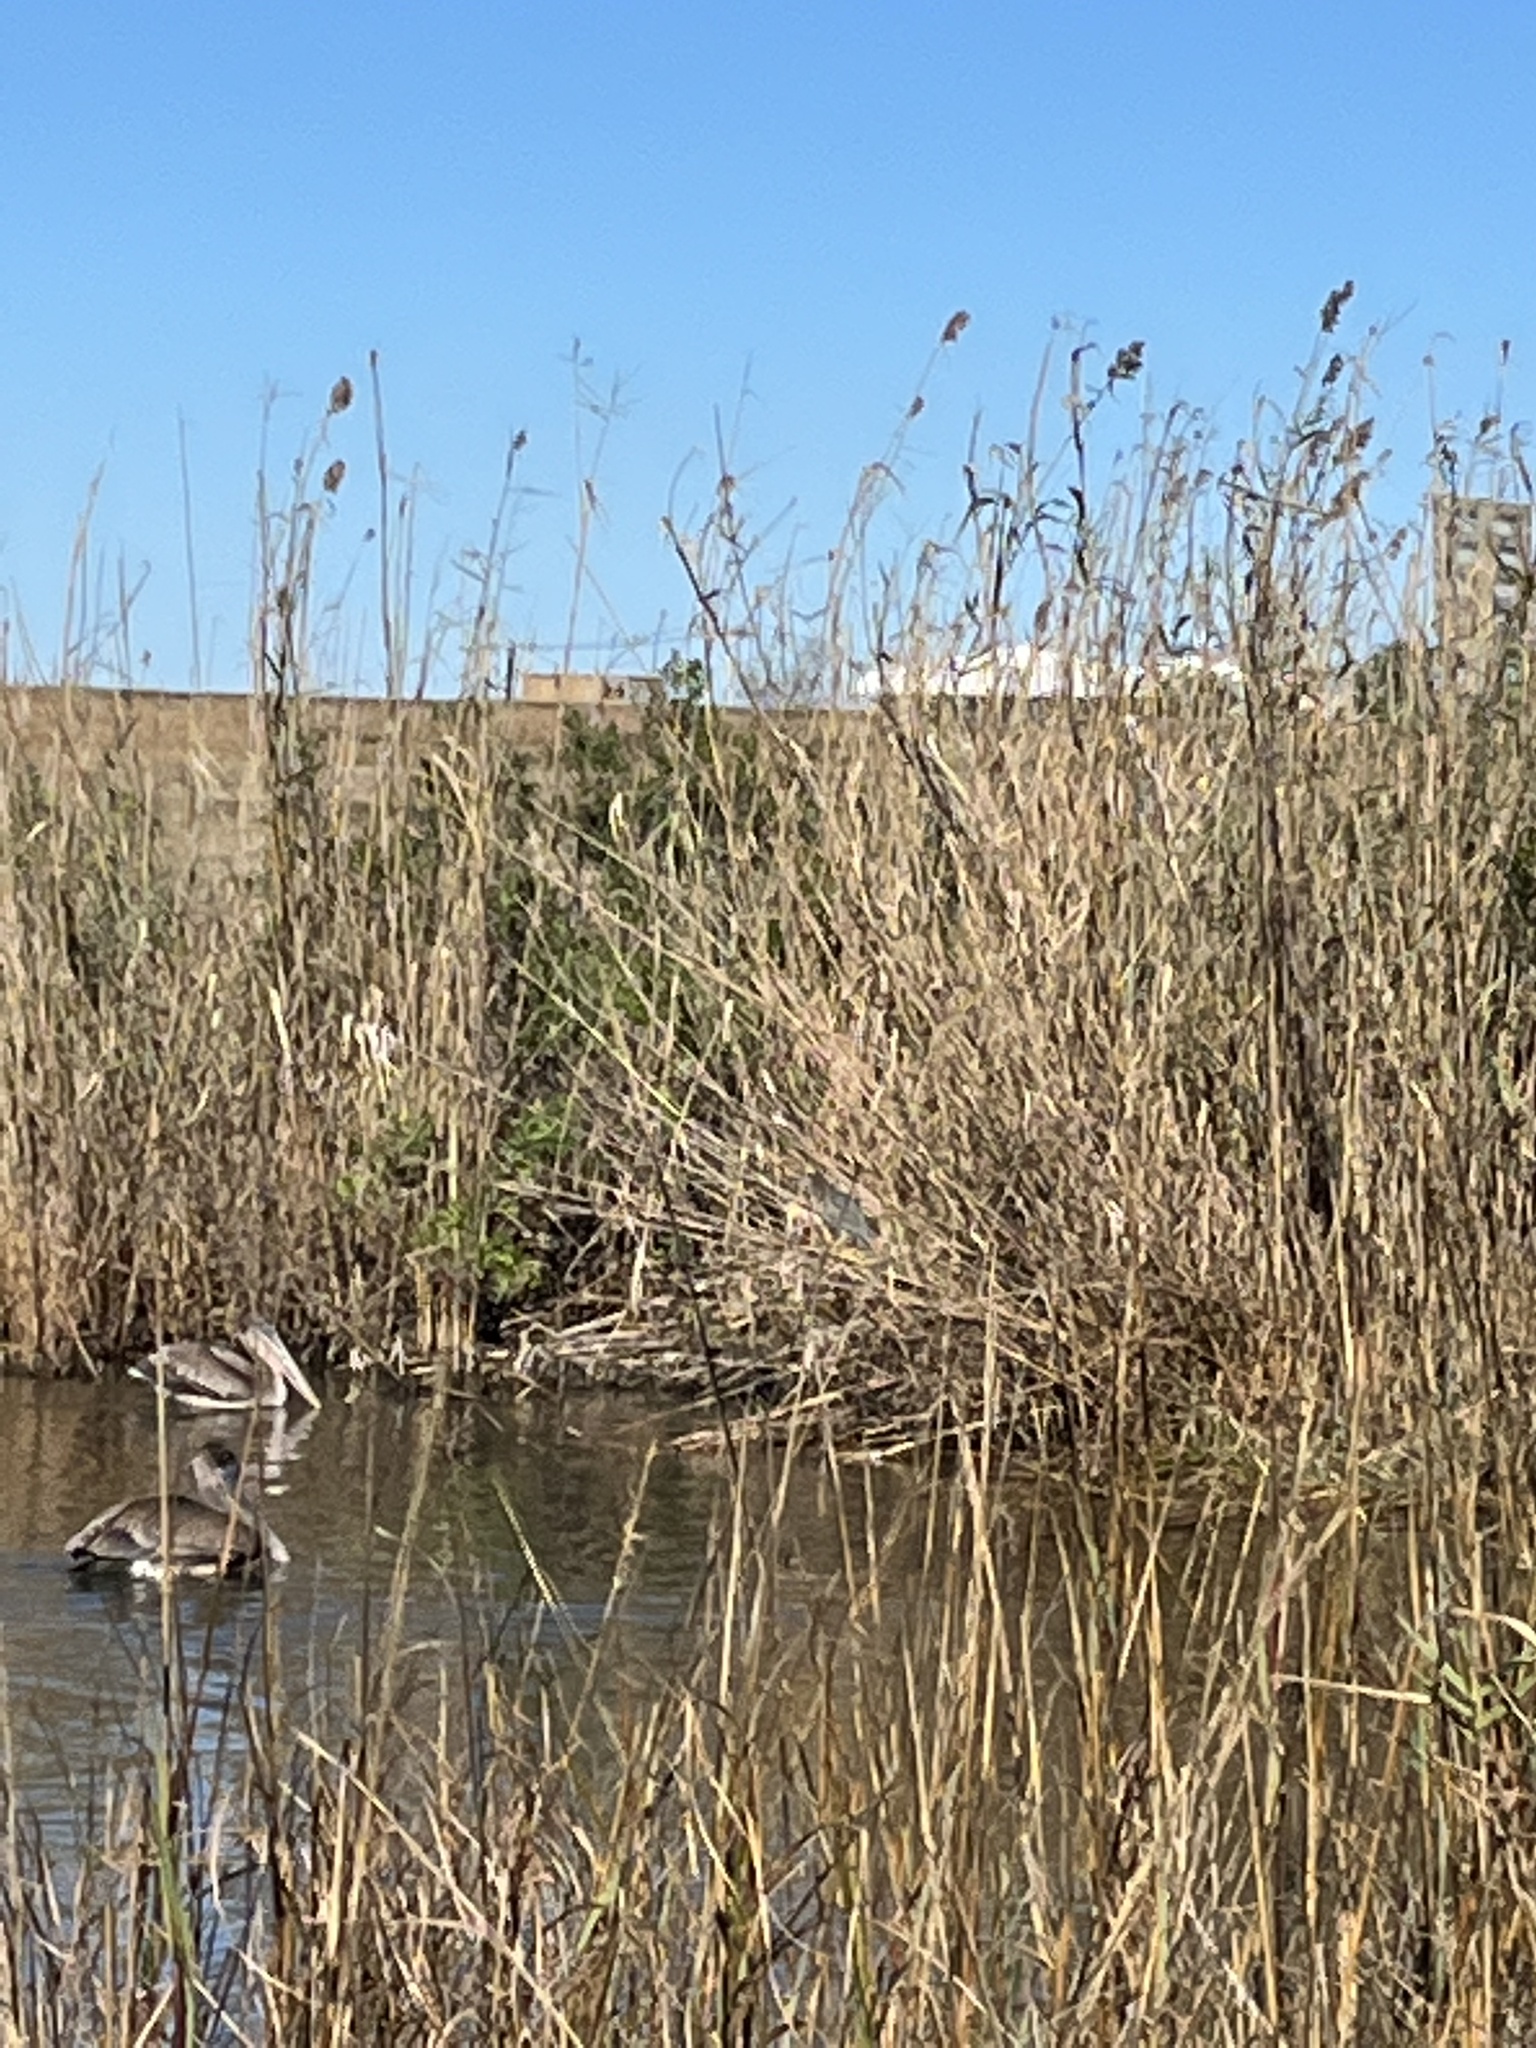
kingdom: Animalia
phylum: Chordata
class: Aves
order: Pelecaniformes
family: Ardeidae
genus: Butorides
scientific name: Butorides virescens
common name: Green heron
